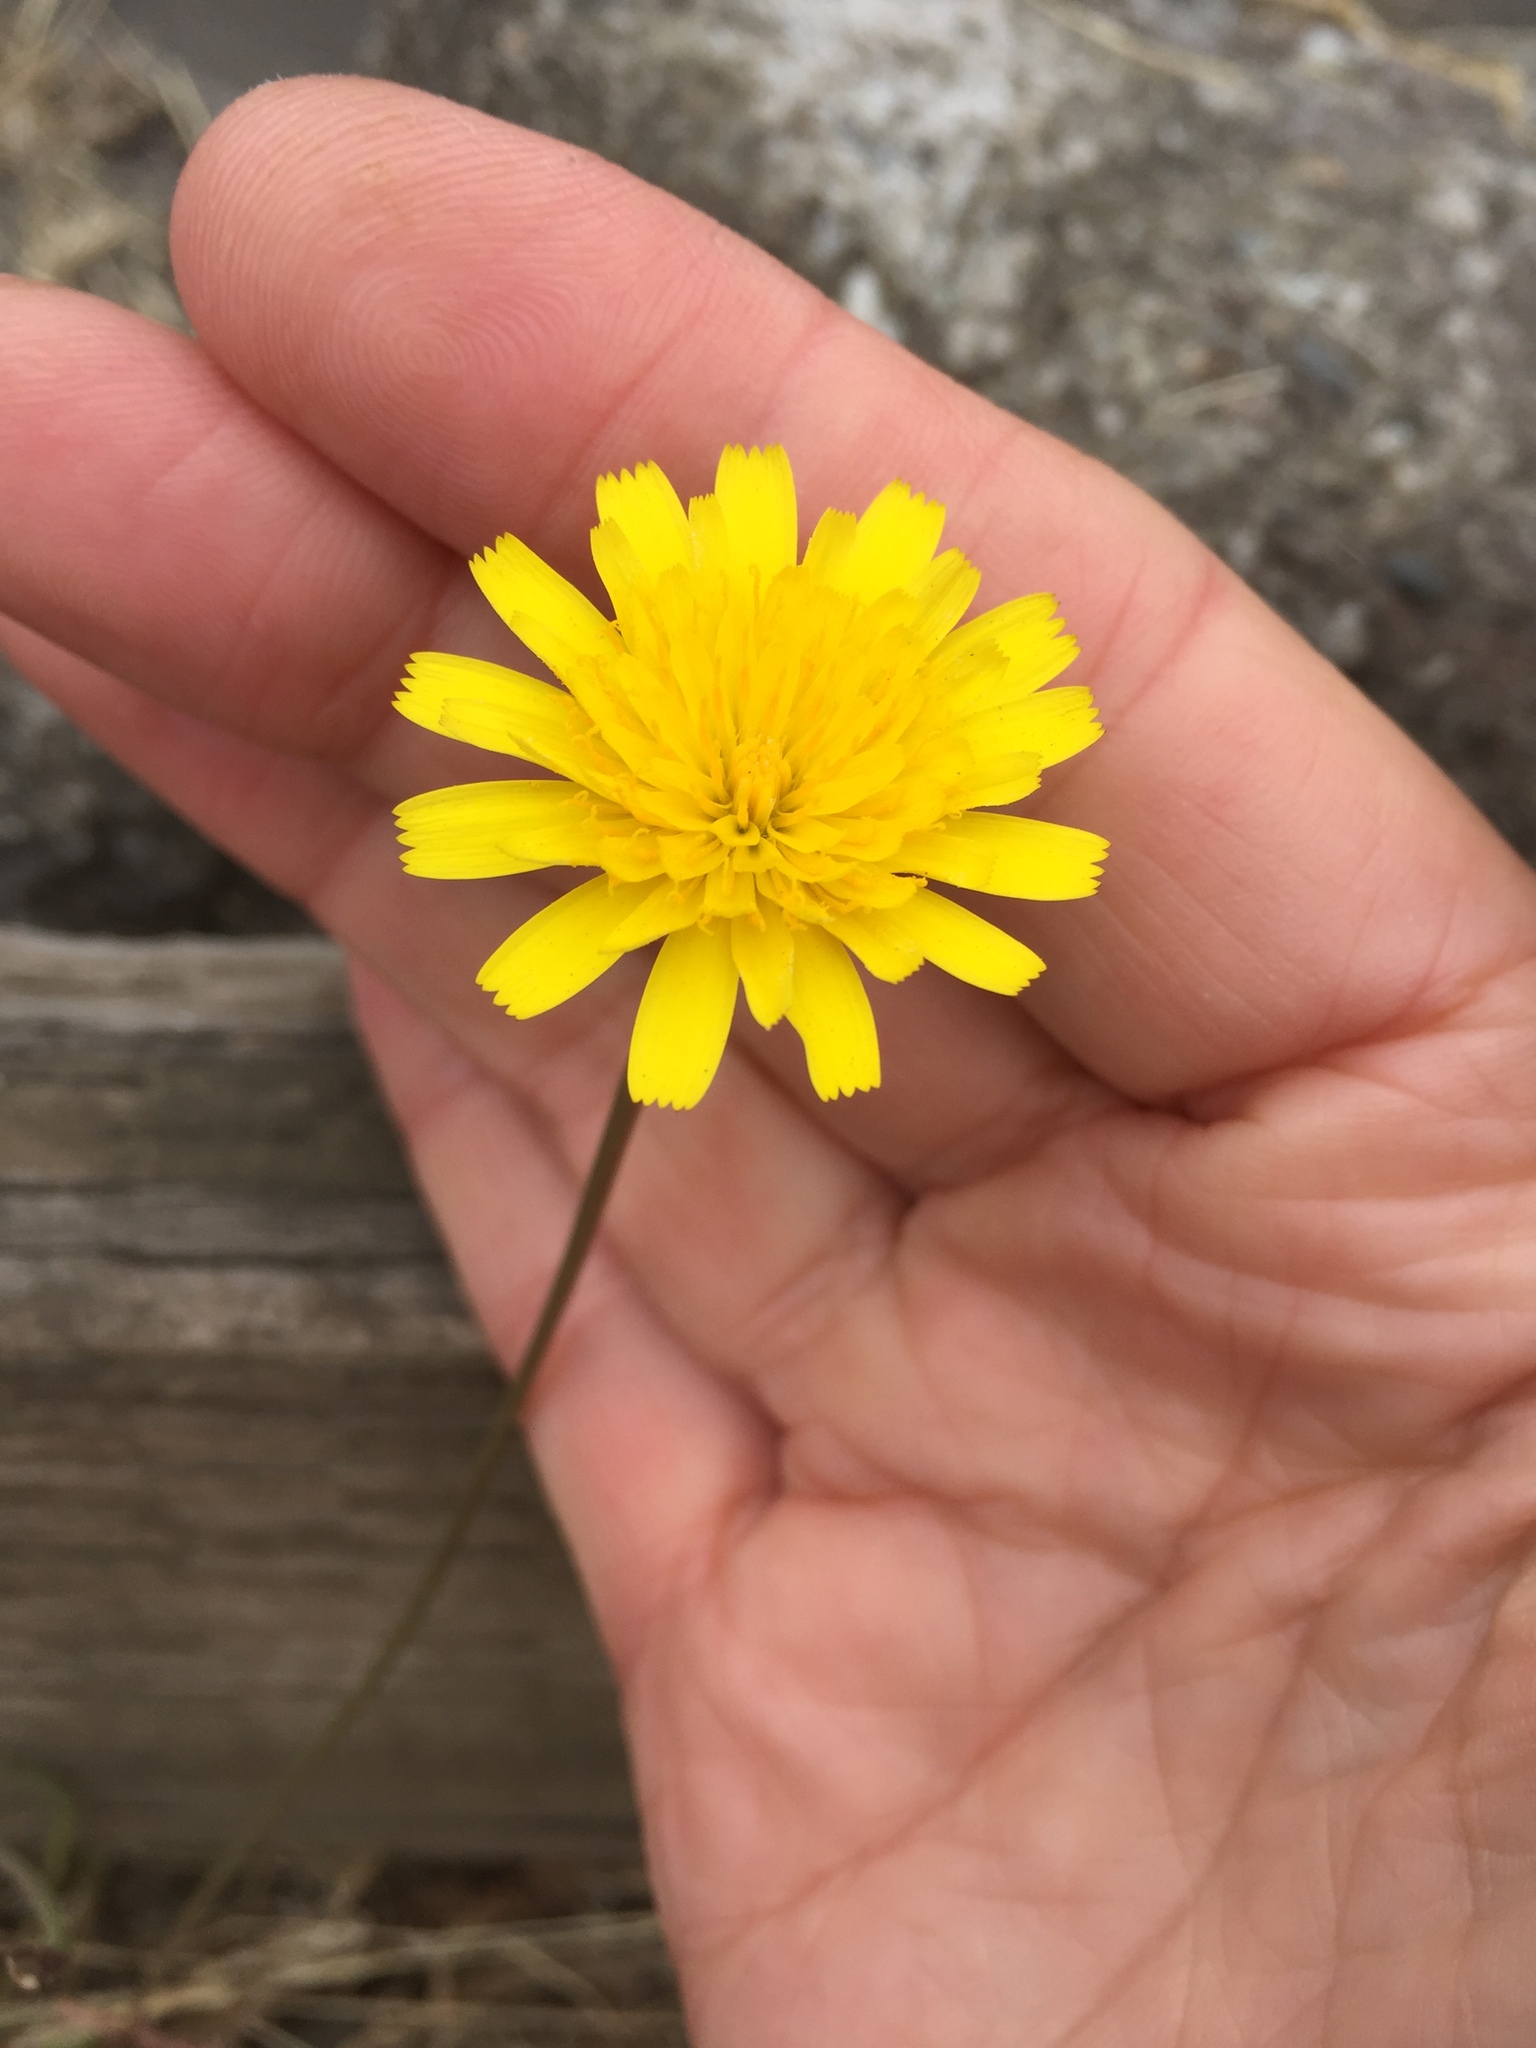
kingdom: Plantae
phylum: Tracheophyta
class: Magnoliopsida
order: Asterales
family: Asteraceae
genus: Hedypnois
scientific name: Hedypnois rhagadioloides
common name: Cretan weed
